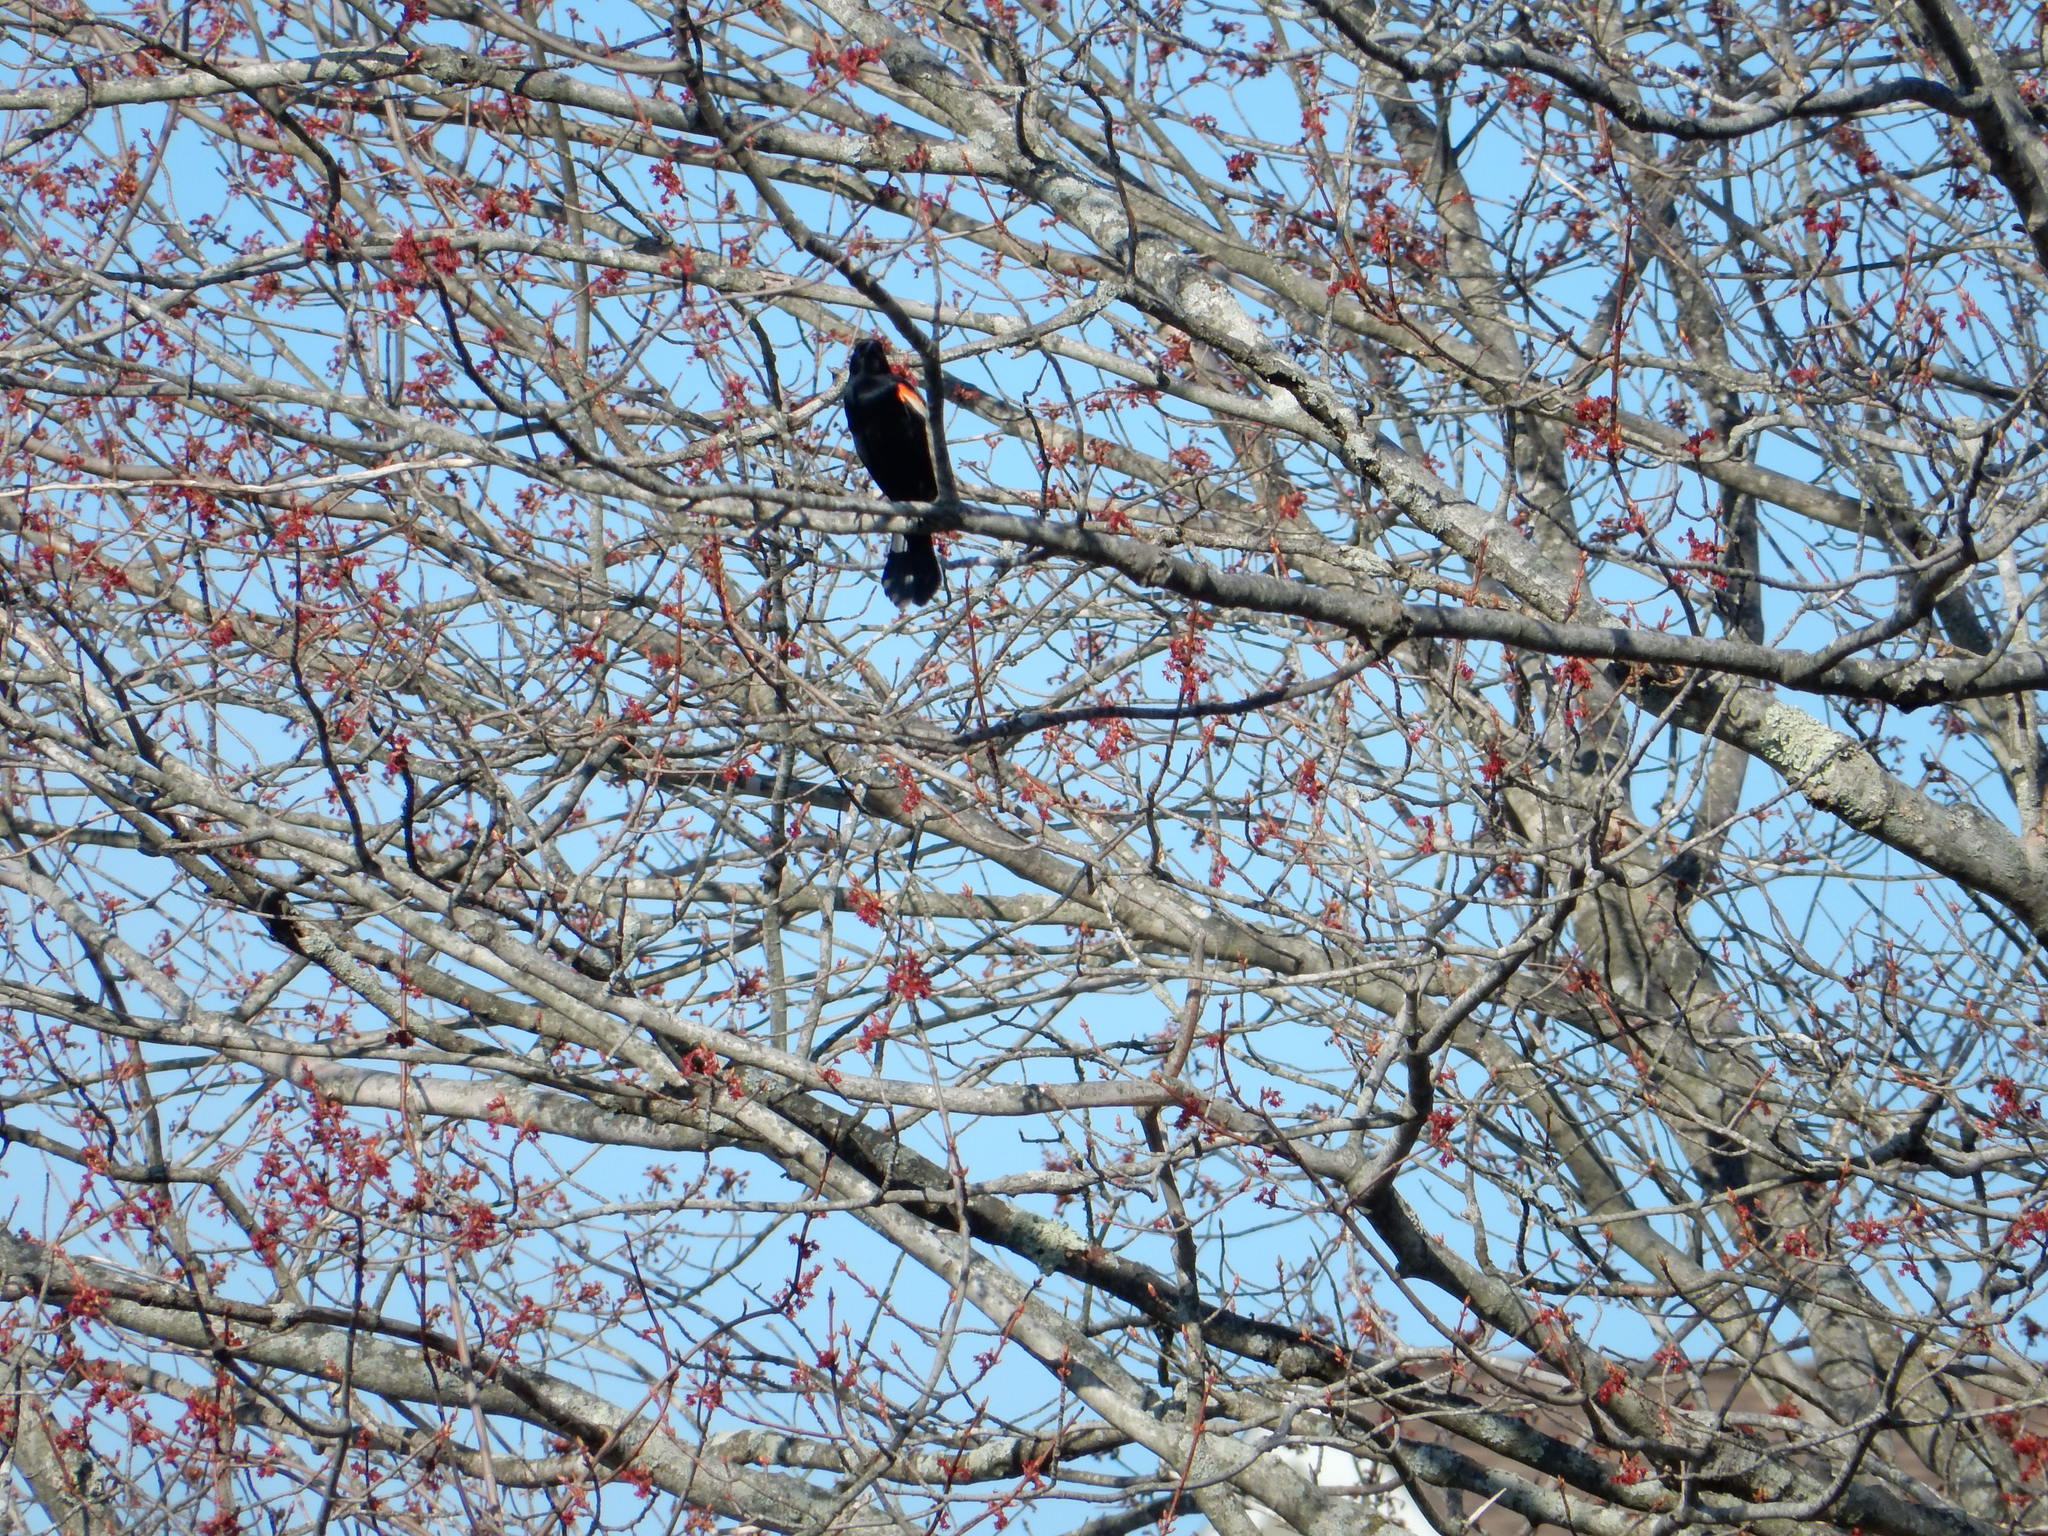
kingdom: Animalia
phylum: Chordata
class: Aves
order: Passeriformes
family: Icteridae
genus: Agelaius
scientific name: Agelaius phoeniceus
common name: Red-winged blackbird
